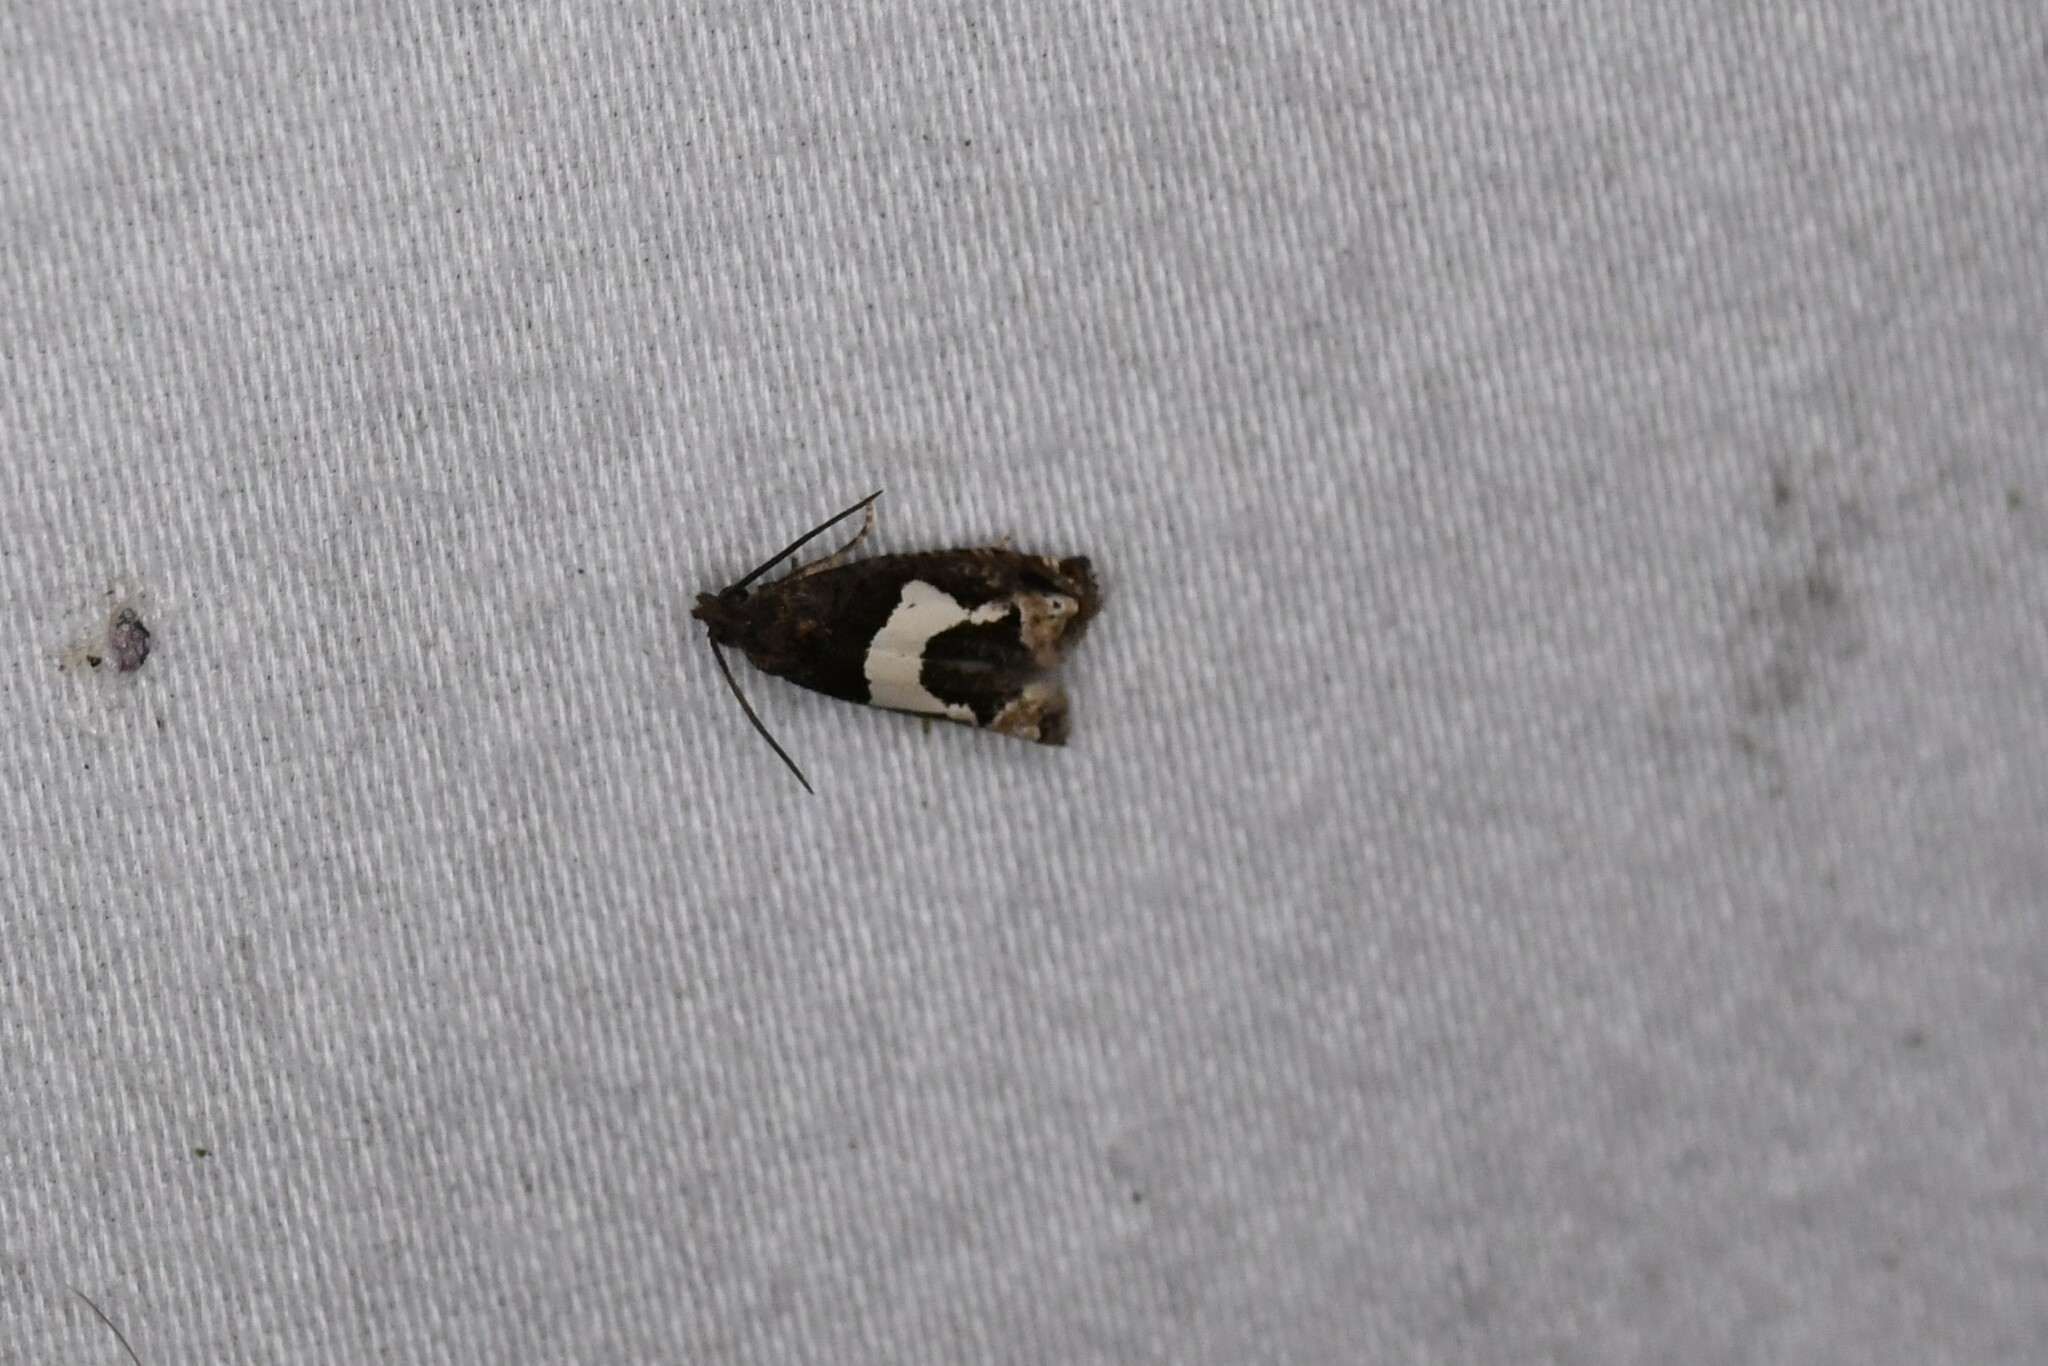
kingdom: Animalia
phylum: Arthropoda
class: Insecta
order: Lepidoptera
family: Tortricidae
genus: Epiblema
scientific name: Epiblema otiosana
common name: Bidens borer moth
